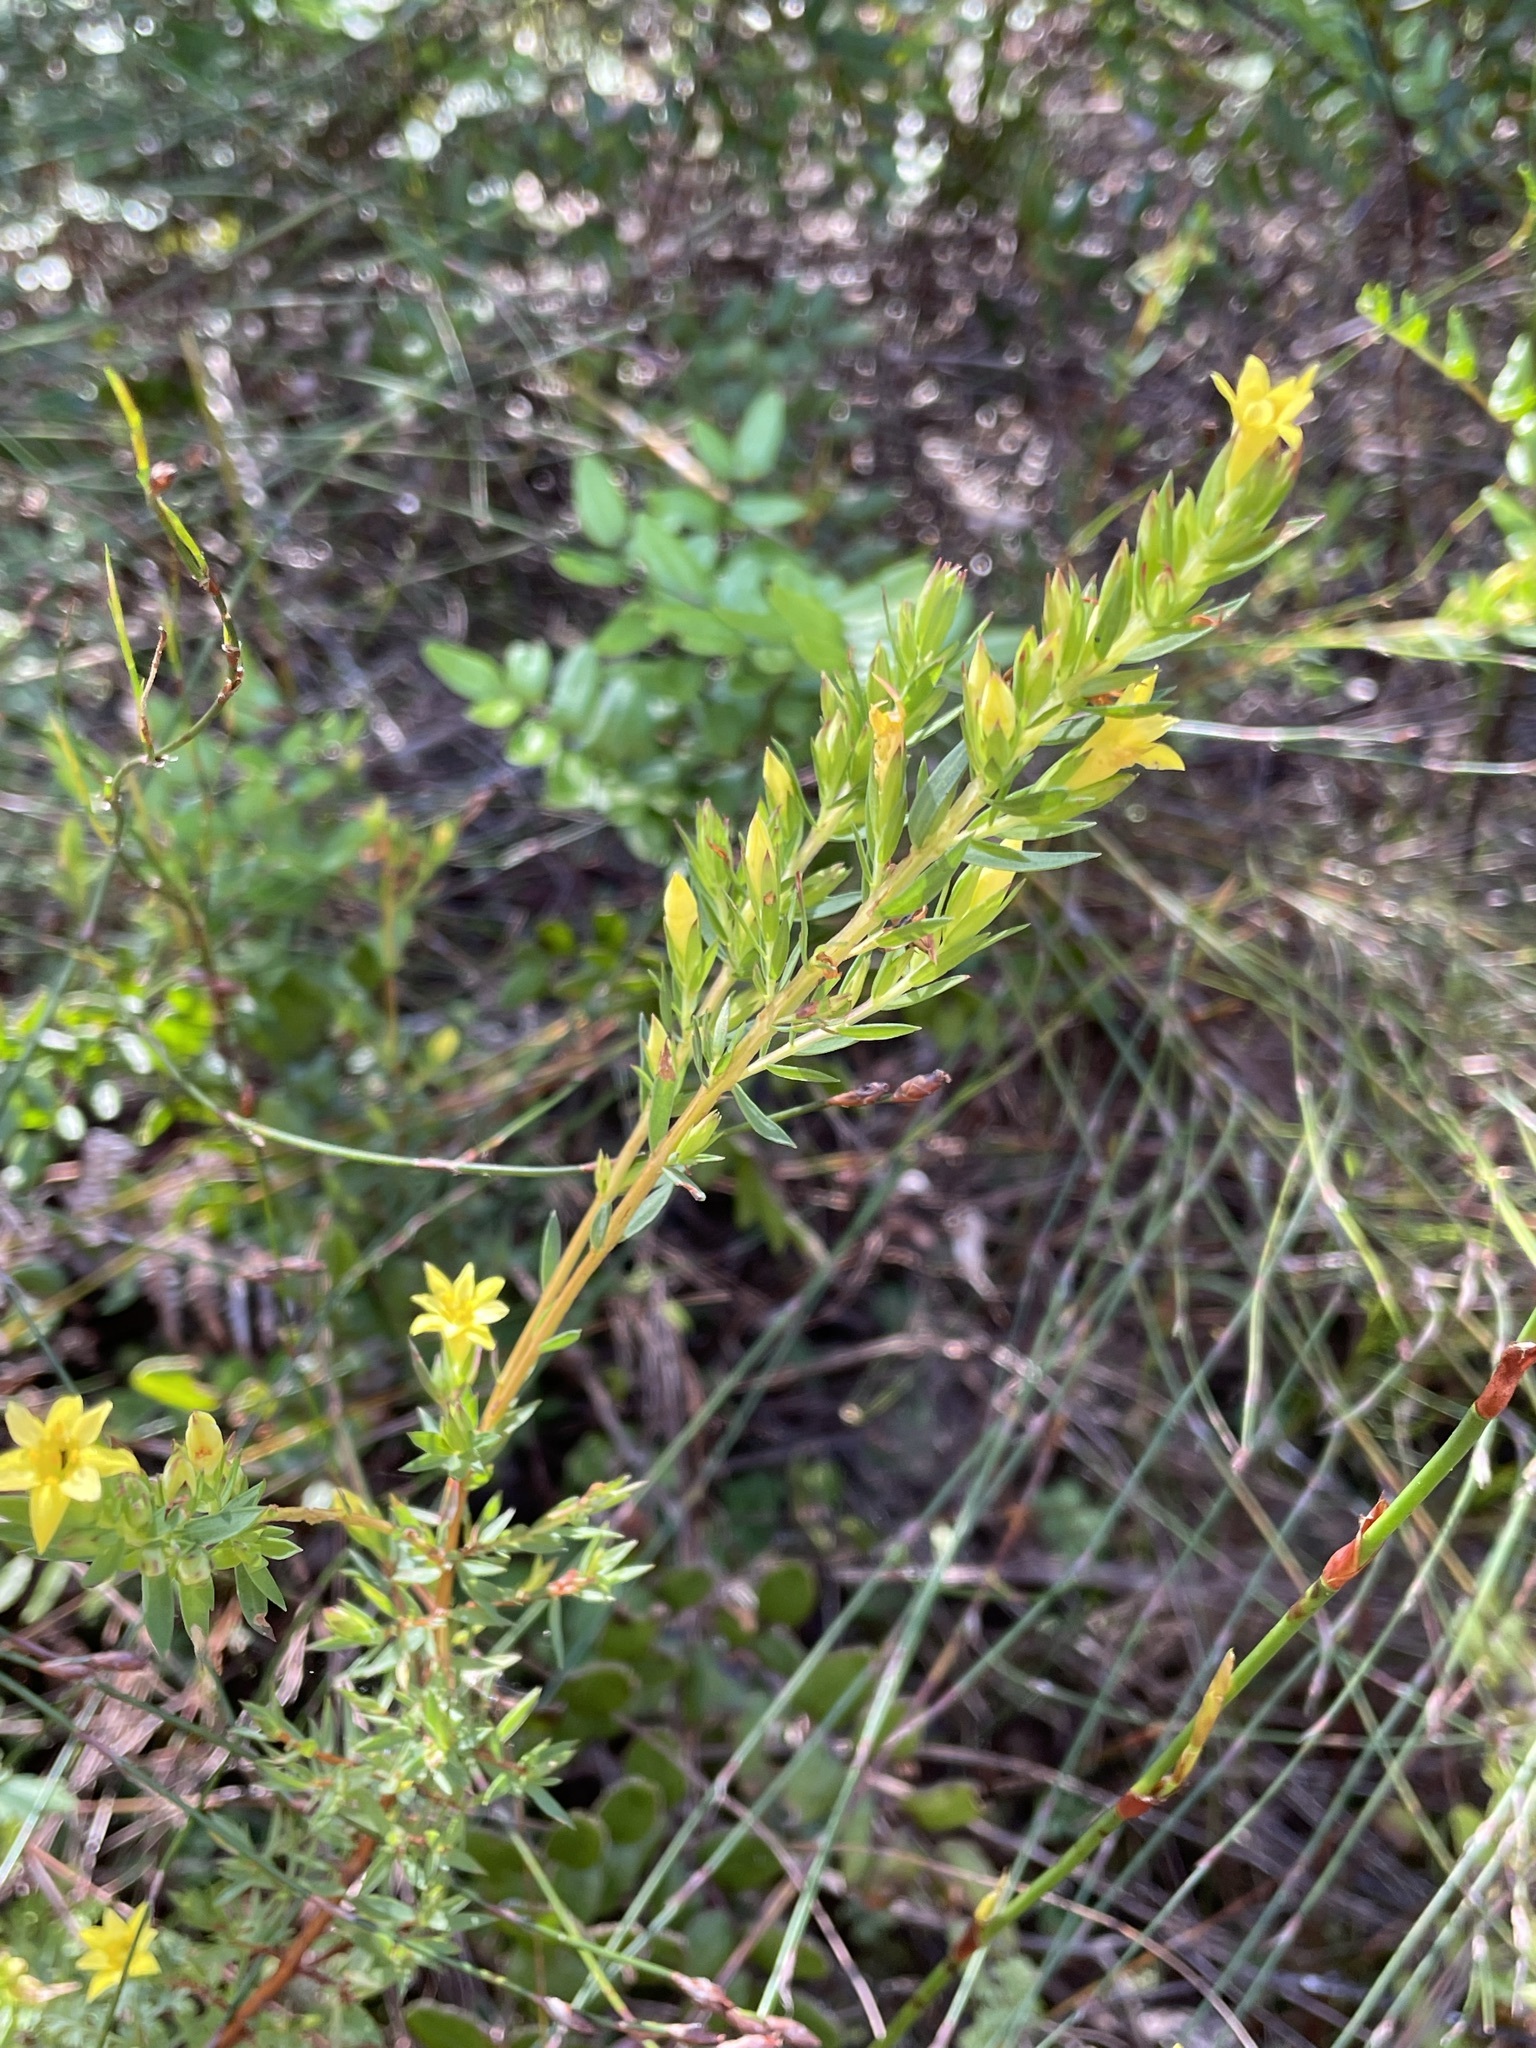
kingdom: Plantae
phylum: Tracheophyta
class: Magnoliopsida
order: Malvales
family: Thymelaeaceae
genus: Gnidia
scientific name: Gnidia juniperifolia
